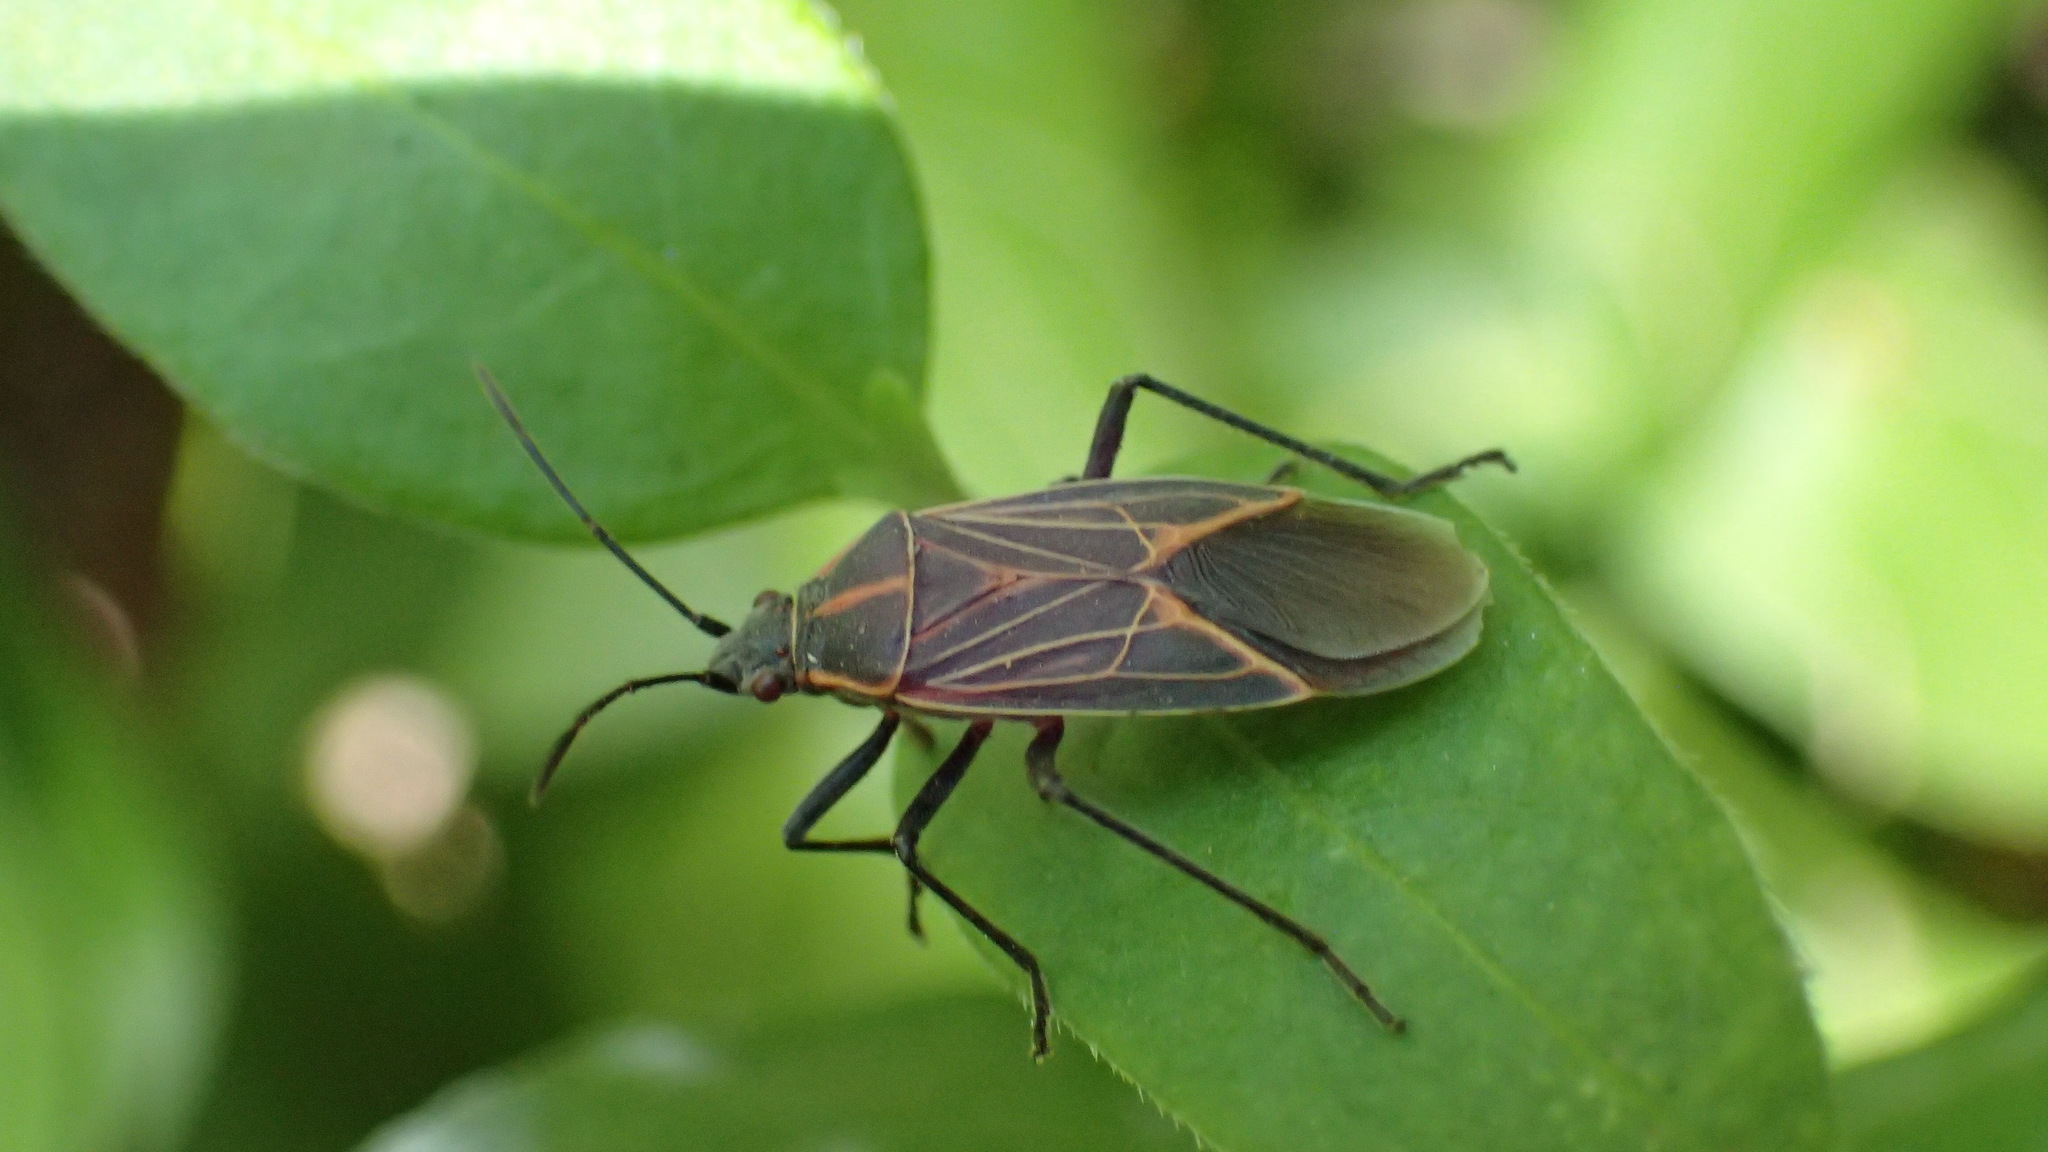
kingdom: Animalia
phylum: Arthropoda
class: Insecta
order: Hemiptera
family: Rhopalidae
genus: Boisea
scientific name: Boisea rubrolineata
